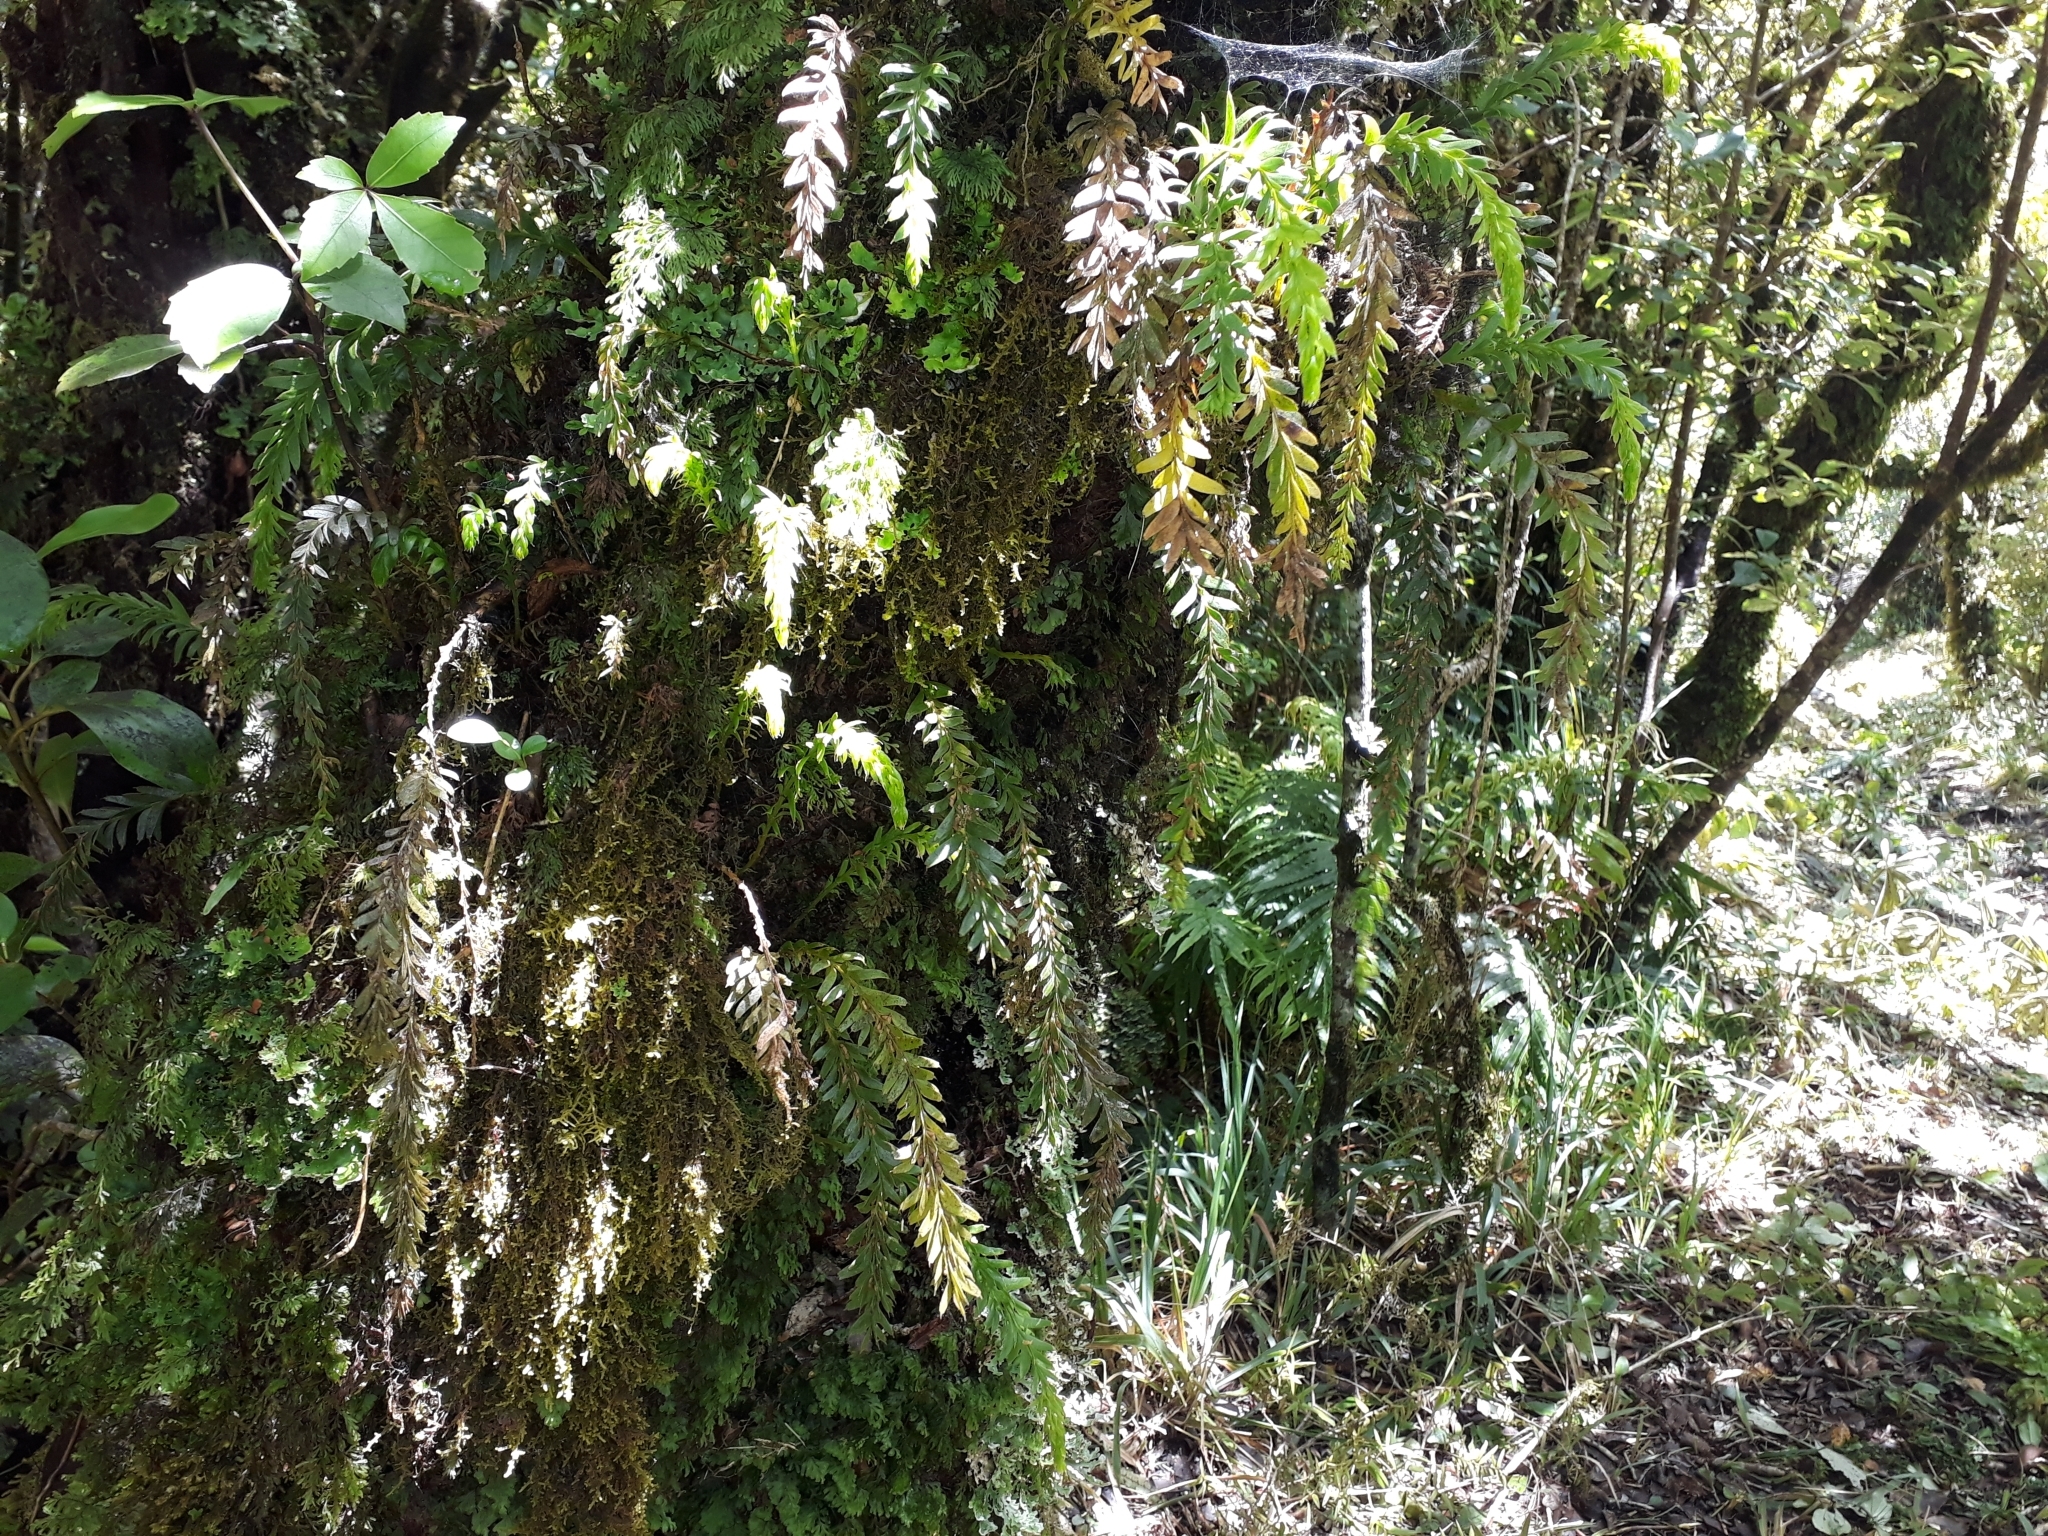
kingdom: Plantae
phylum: Tracheophyta
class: Polypodiopsida
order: Psilotales
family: Psilotaceae
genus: Tmesipteris
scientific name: Tmesipteris tannensis
